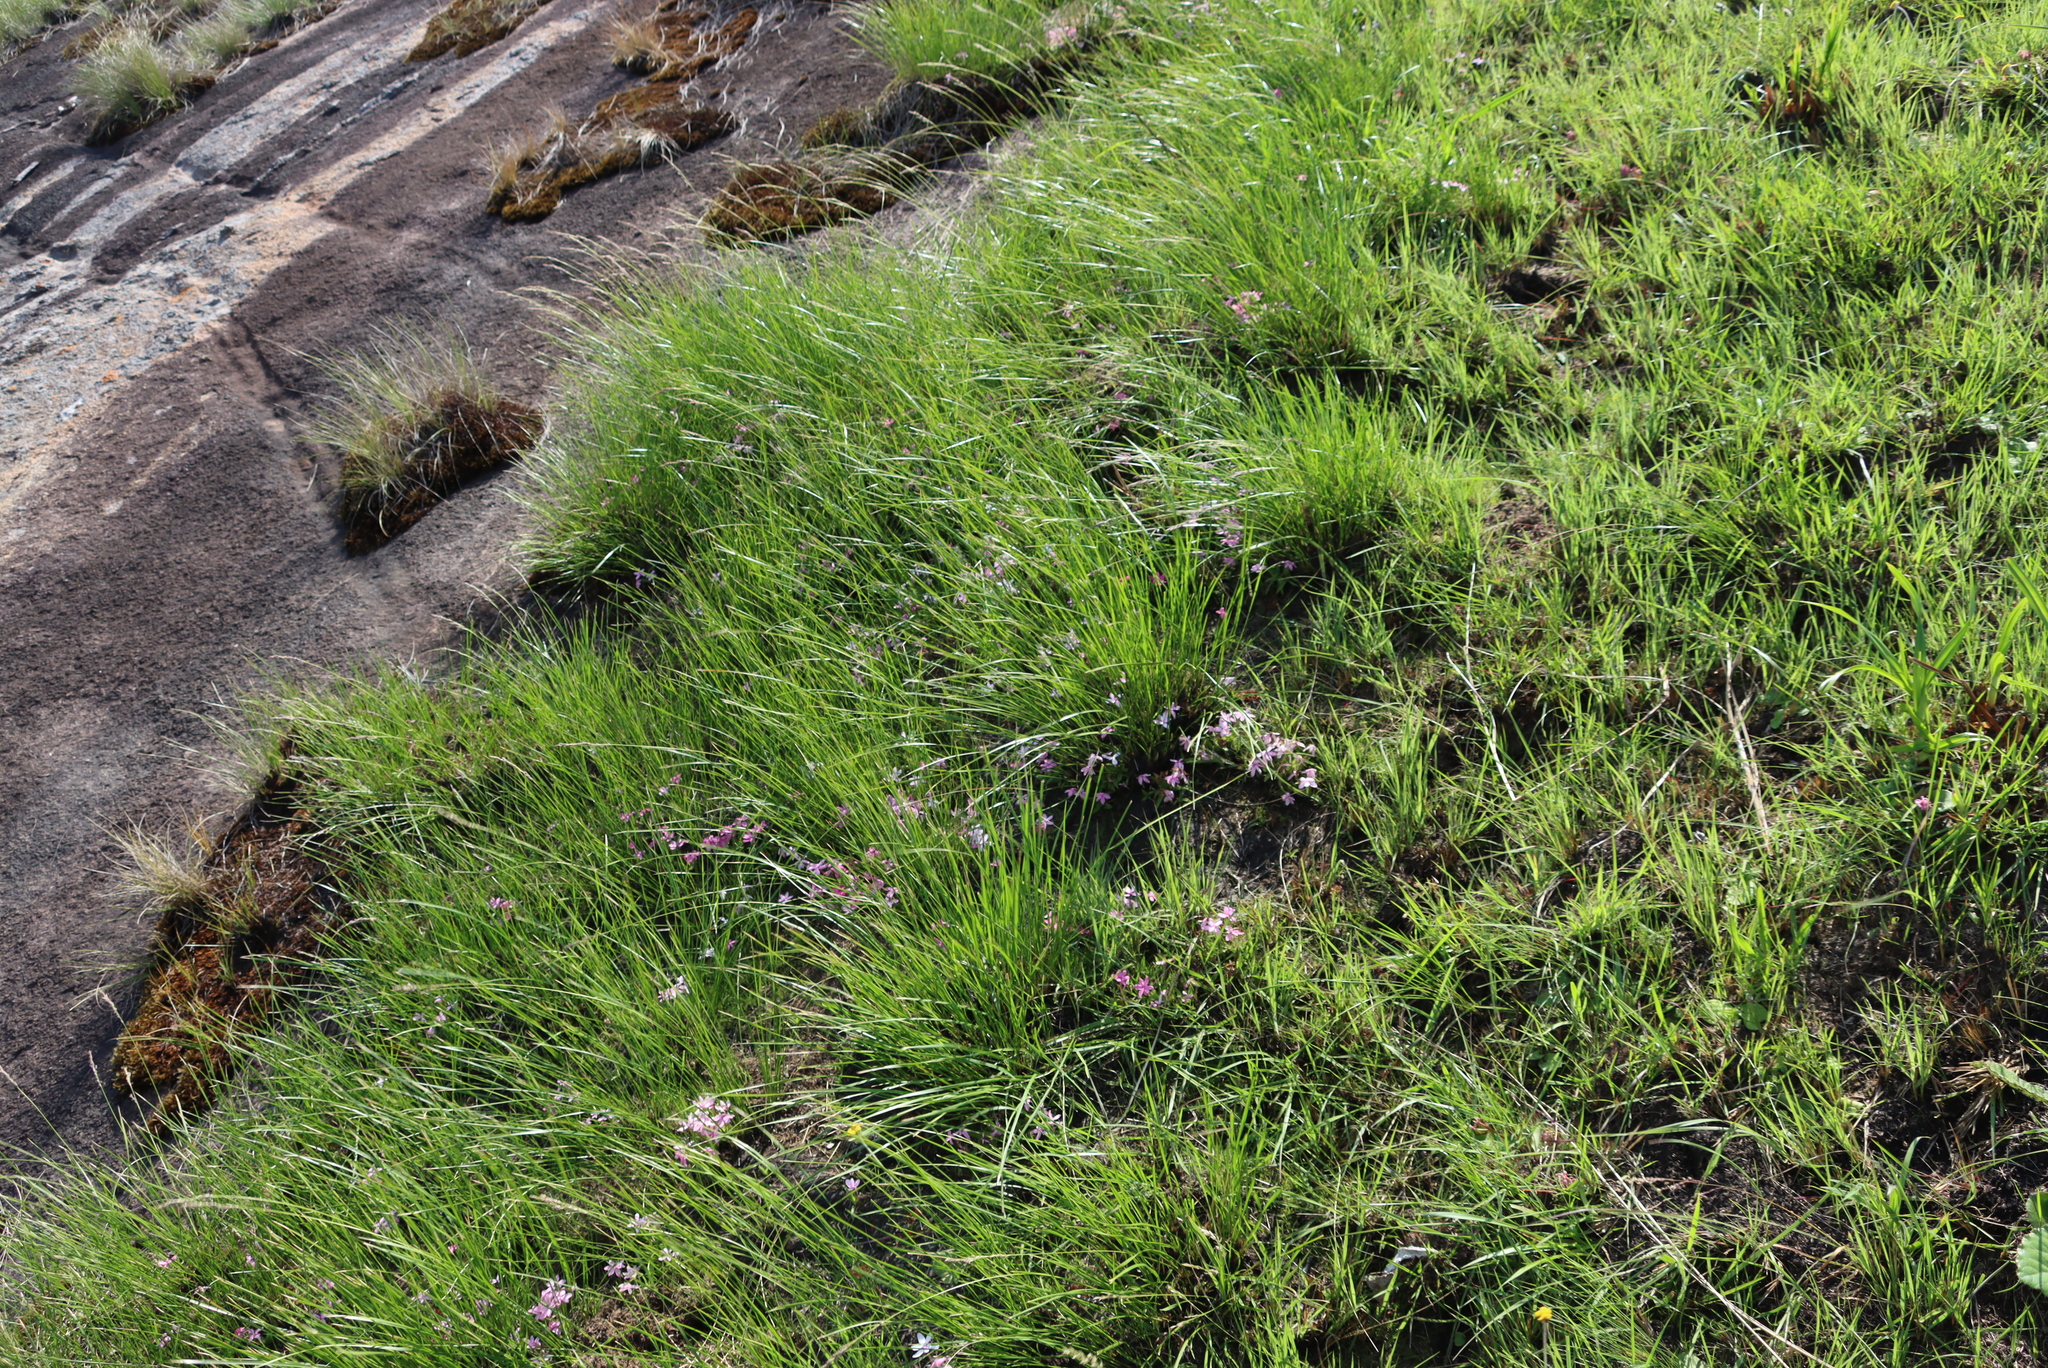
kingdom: Plantae
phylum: Tracheophyta
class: Liliopsida
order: Asparagales
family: Hypoxidaceae
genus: Hypoxis
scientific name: Hypoxis baurii
